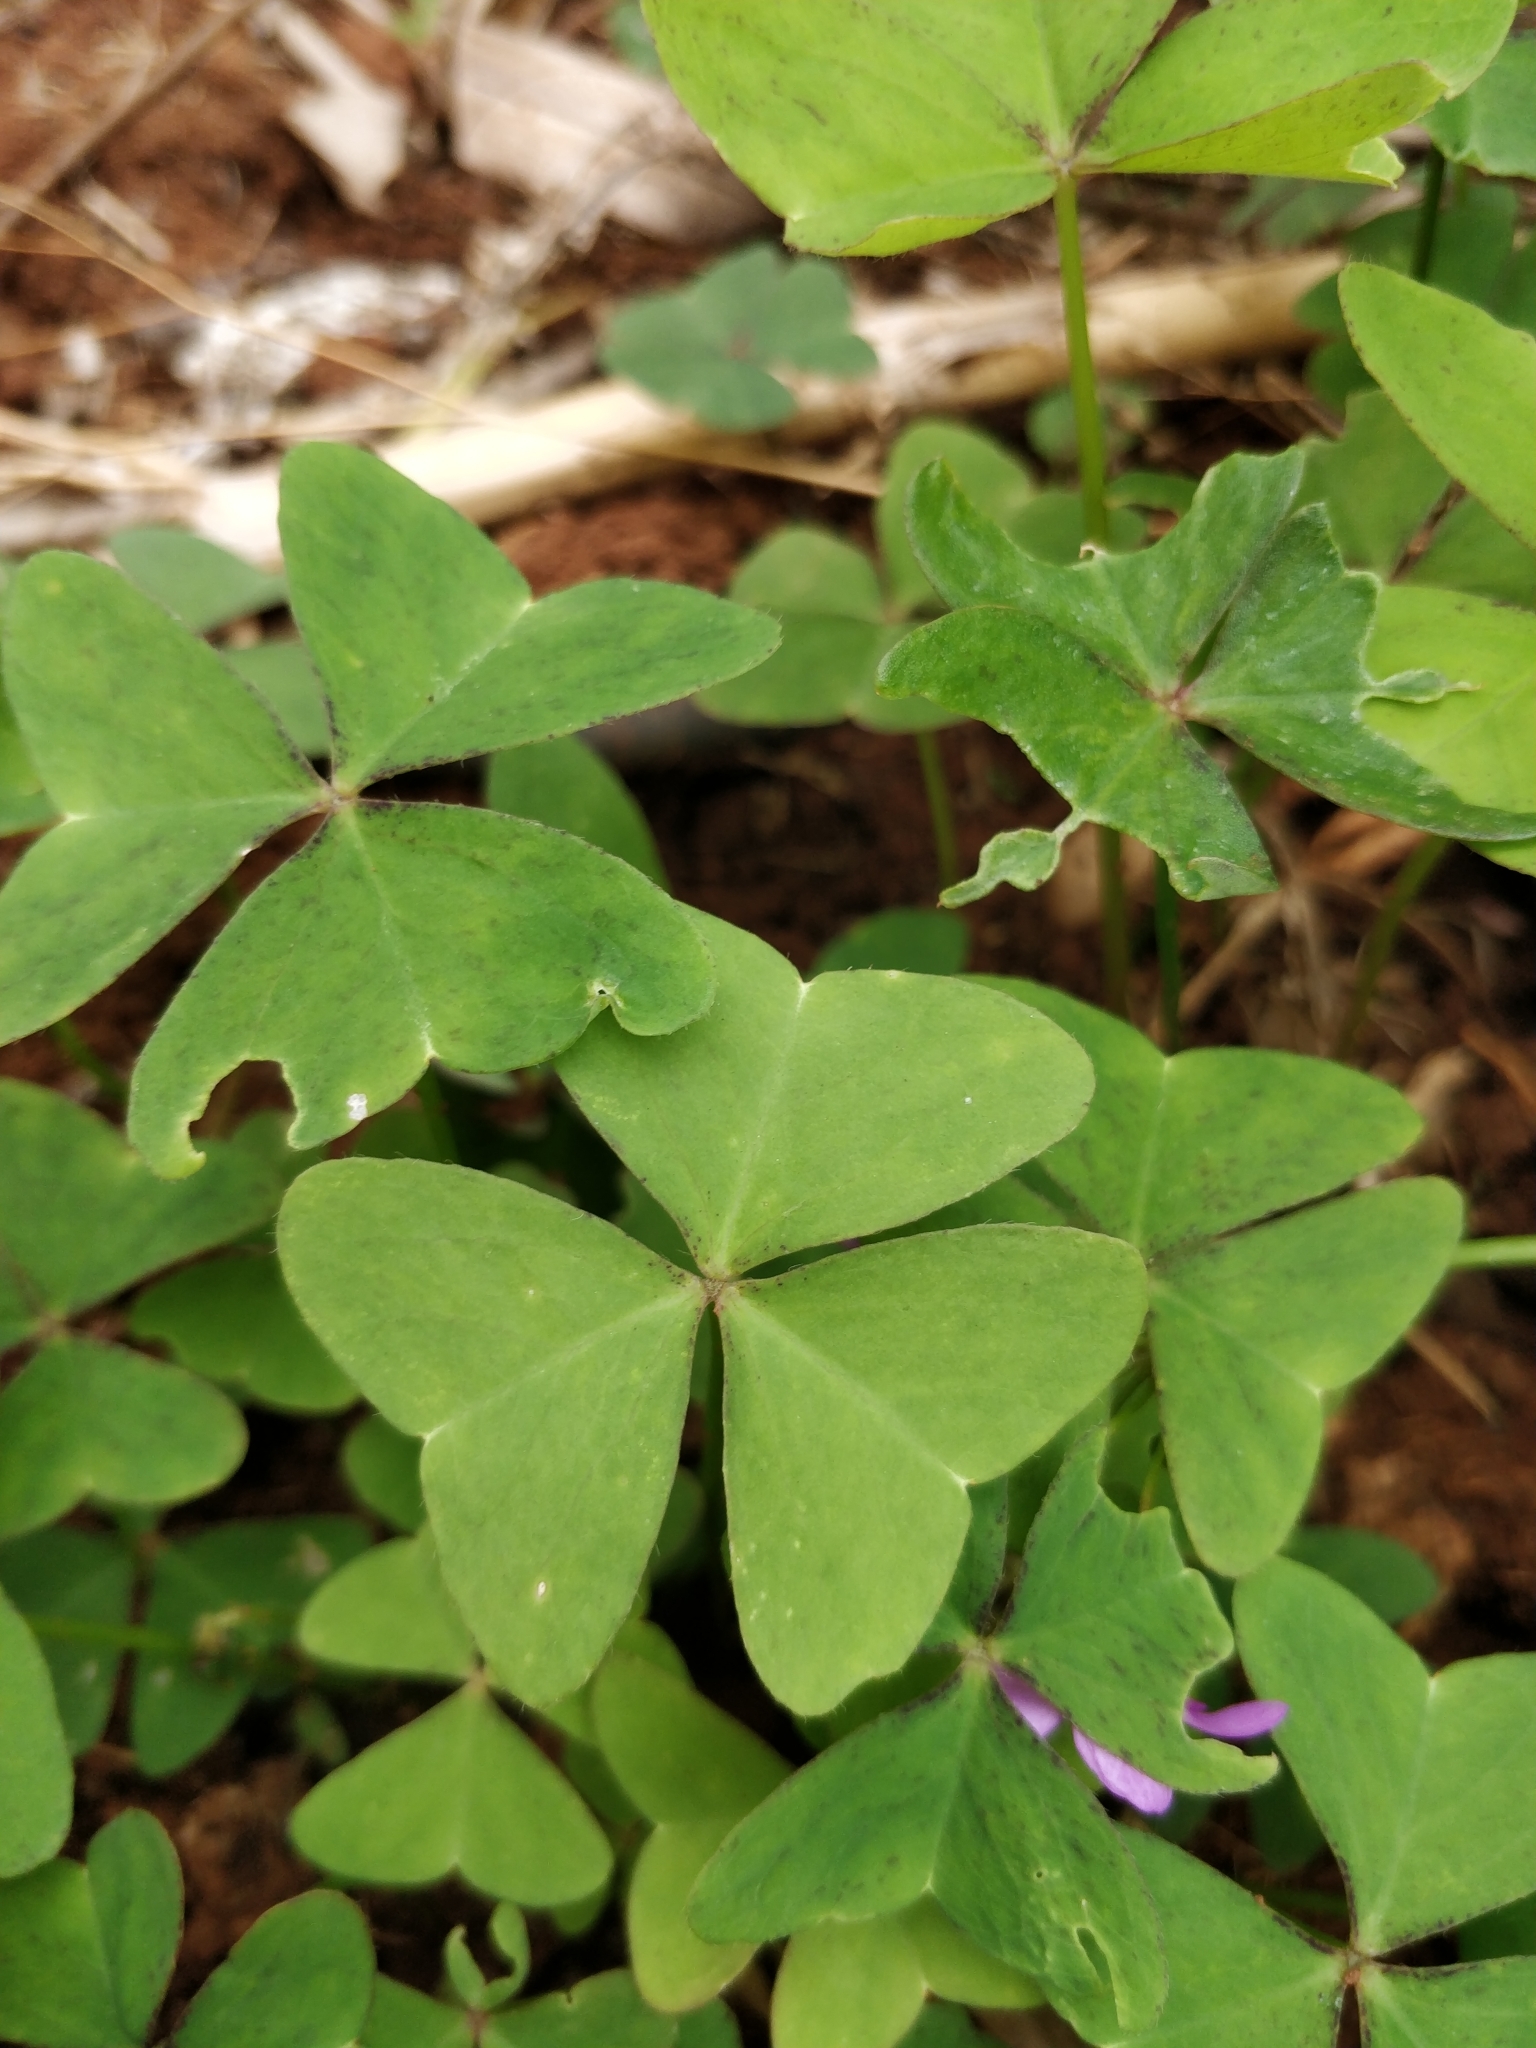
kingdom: Plantae
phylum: Tracheophyta
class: Magnoliopsida
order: Oxalidales
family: Oxalidaceae
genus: Oxalis
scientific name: Oxalis latifolia
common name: Garden pink-sorrel
